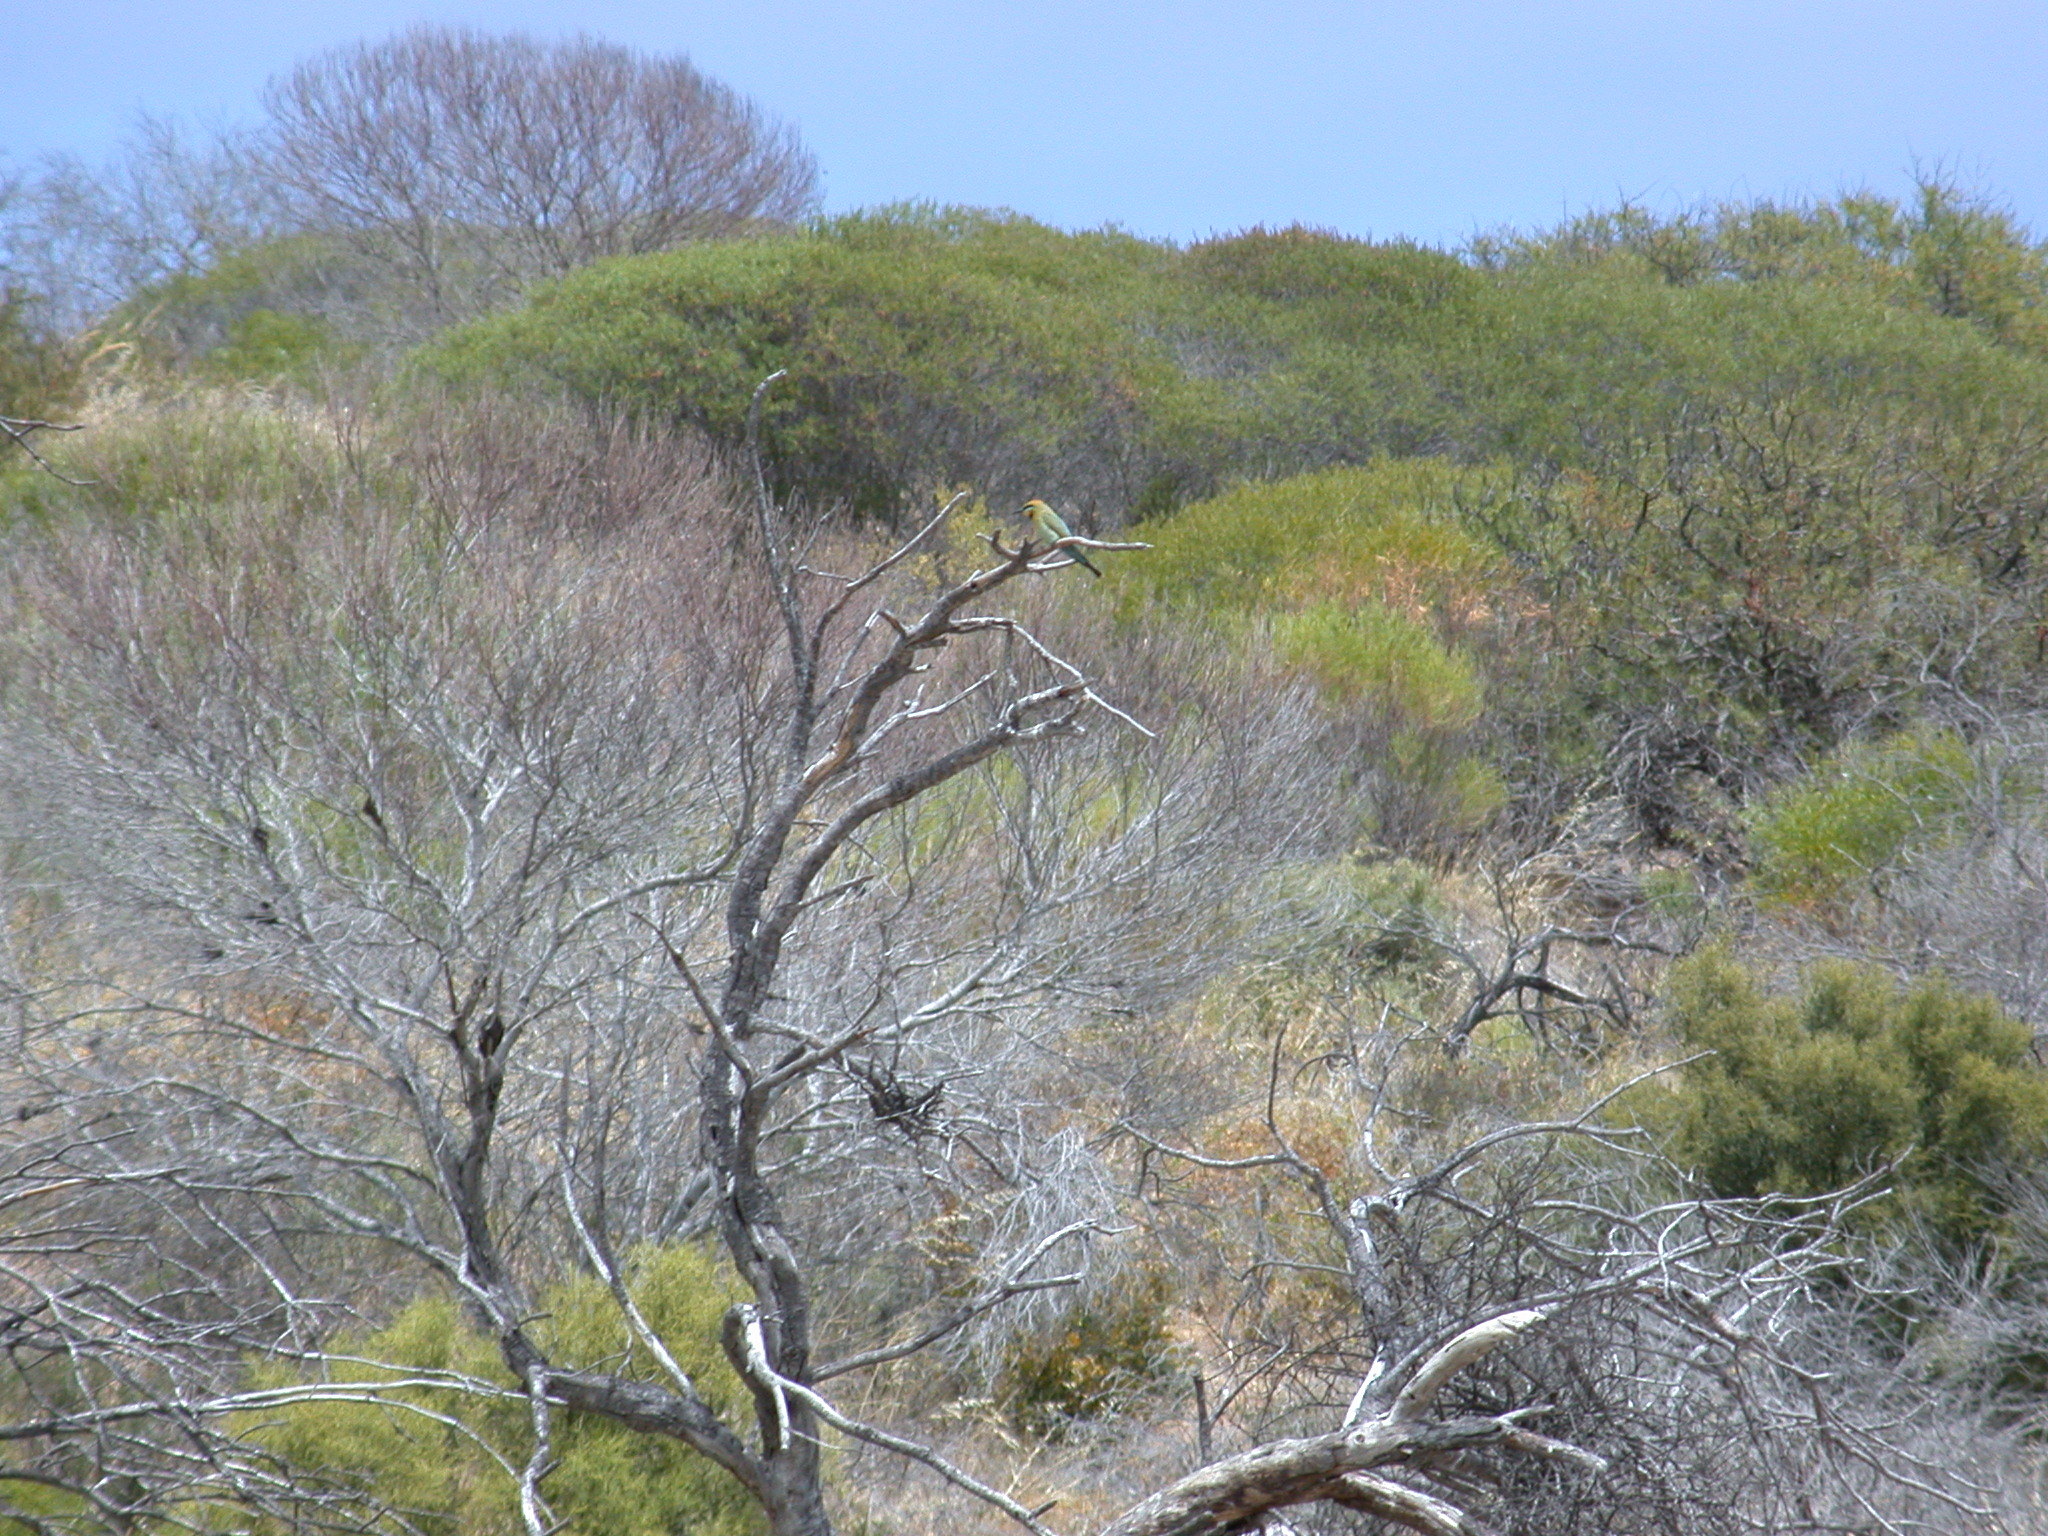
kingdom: Animalia
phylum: Chordata
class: Aves
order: Coraciiformes
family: Meropidae
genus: Merops
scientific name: Merops ornatus
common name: Rainbow bee-eater
